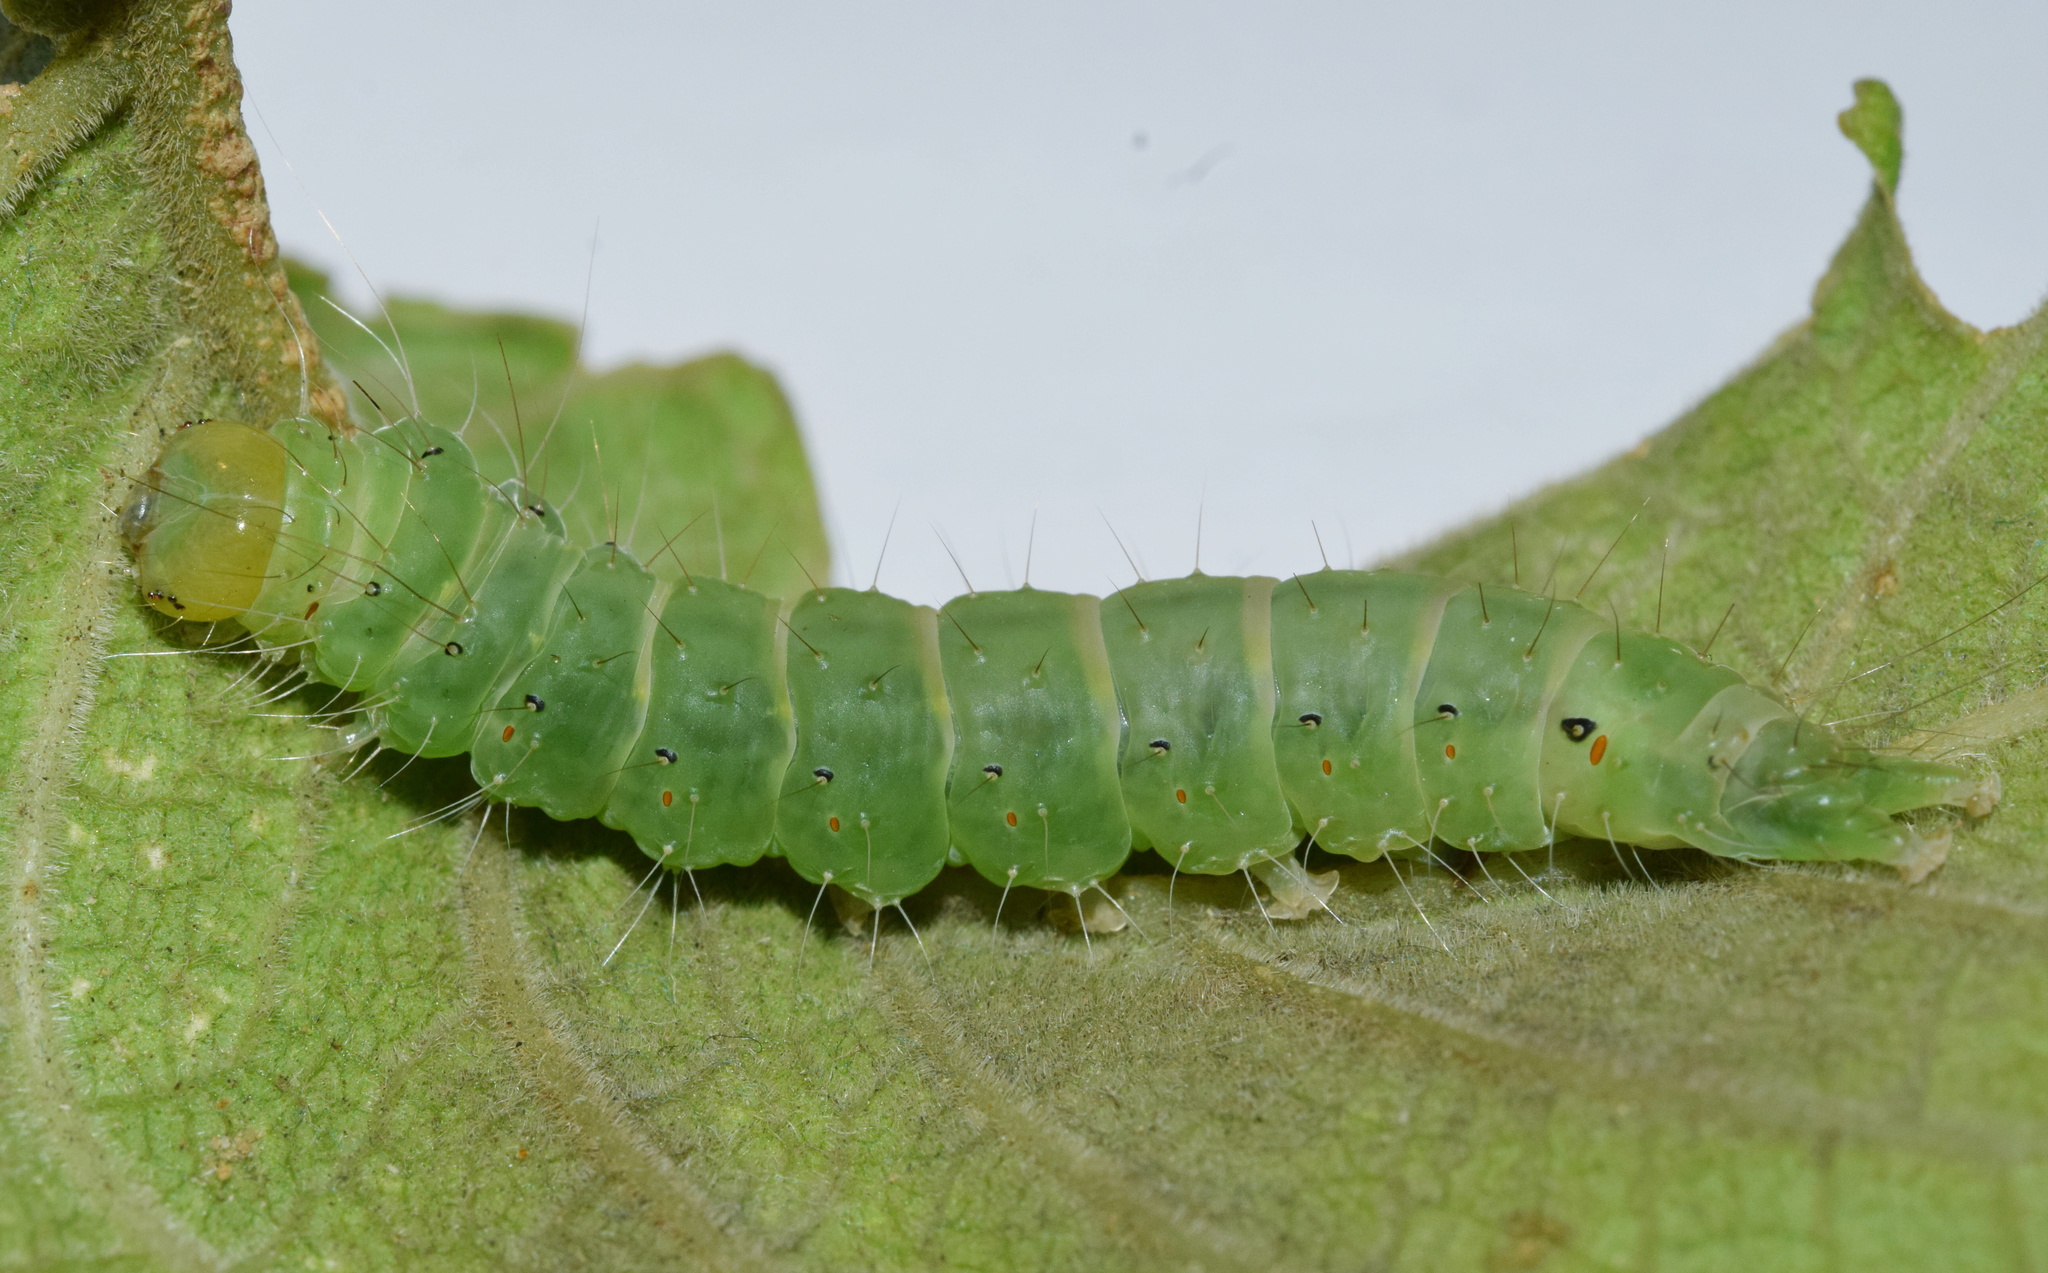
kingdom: Animalia
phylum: Arthropoda
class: Insecta
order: Lepidoptera
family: Erebidae
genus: Amerila
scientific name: Amerila affinis
